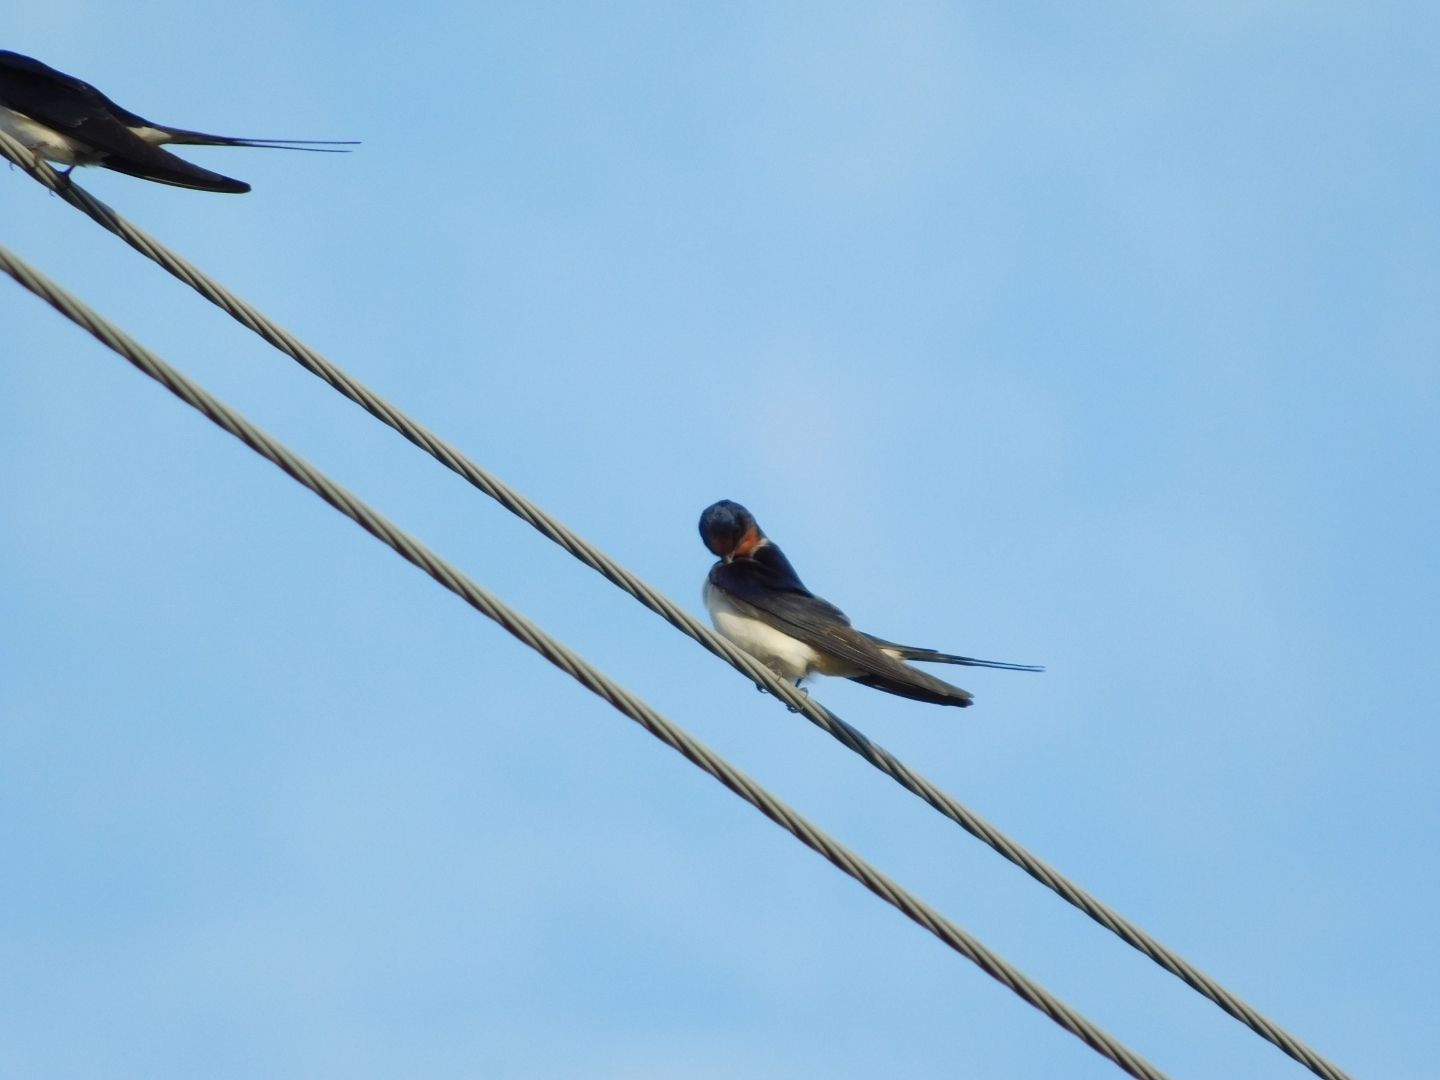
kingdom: Animalia
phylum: Chordata
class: Aves
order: Passeriformes
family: Hirundinidae
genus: Hirundo
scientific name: Hirundo rustica
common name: Barn swallow
